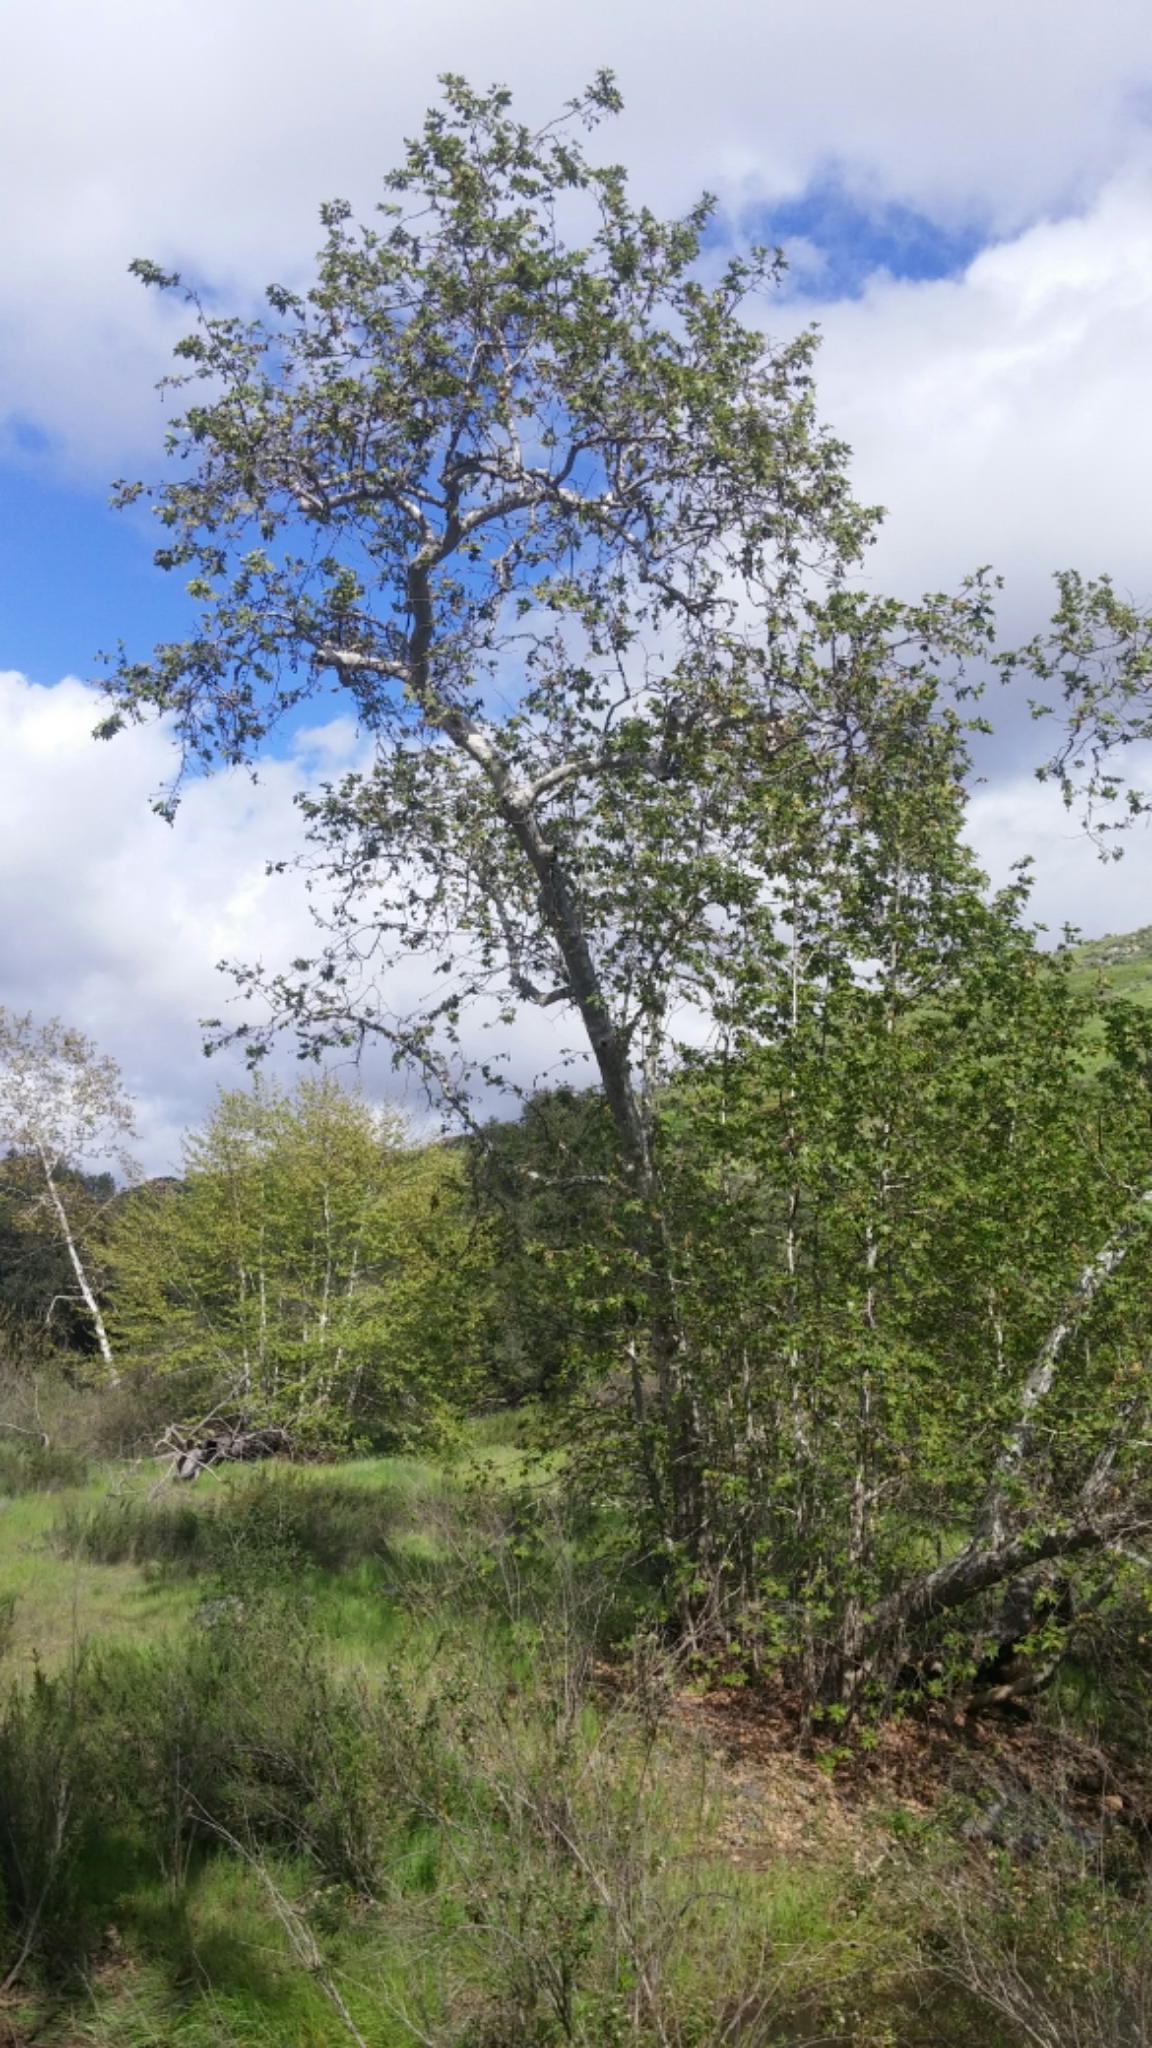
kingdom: Plantae
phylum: Tracheophyta
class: Magnoliopsida
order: Proteales
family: Platanaceae
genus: Platanus
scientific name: Platanus racemosa
